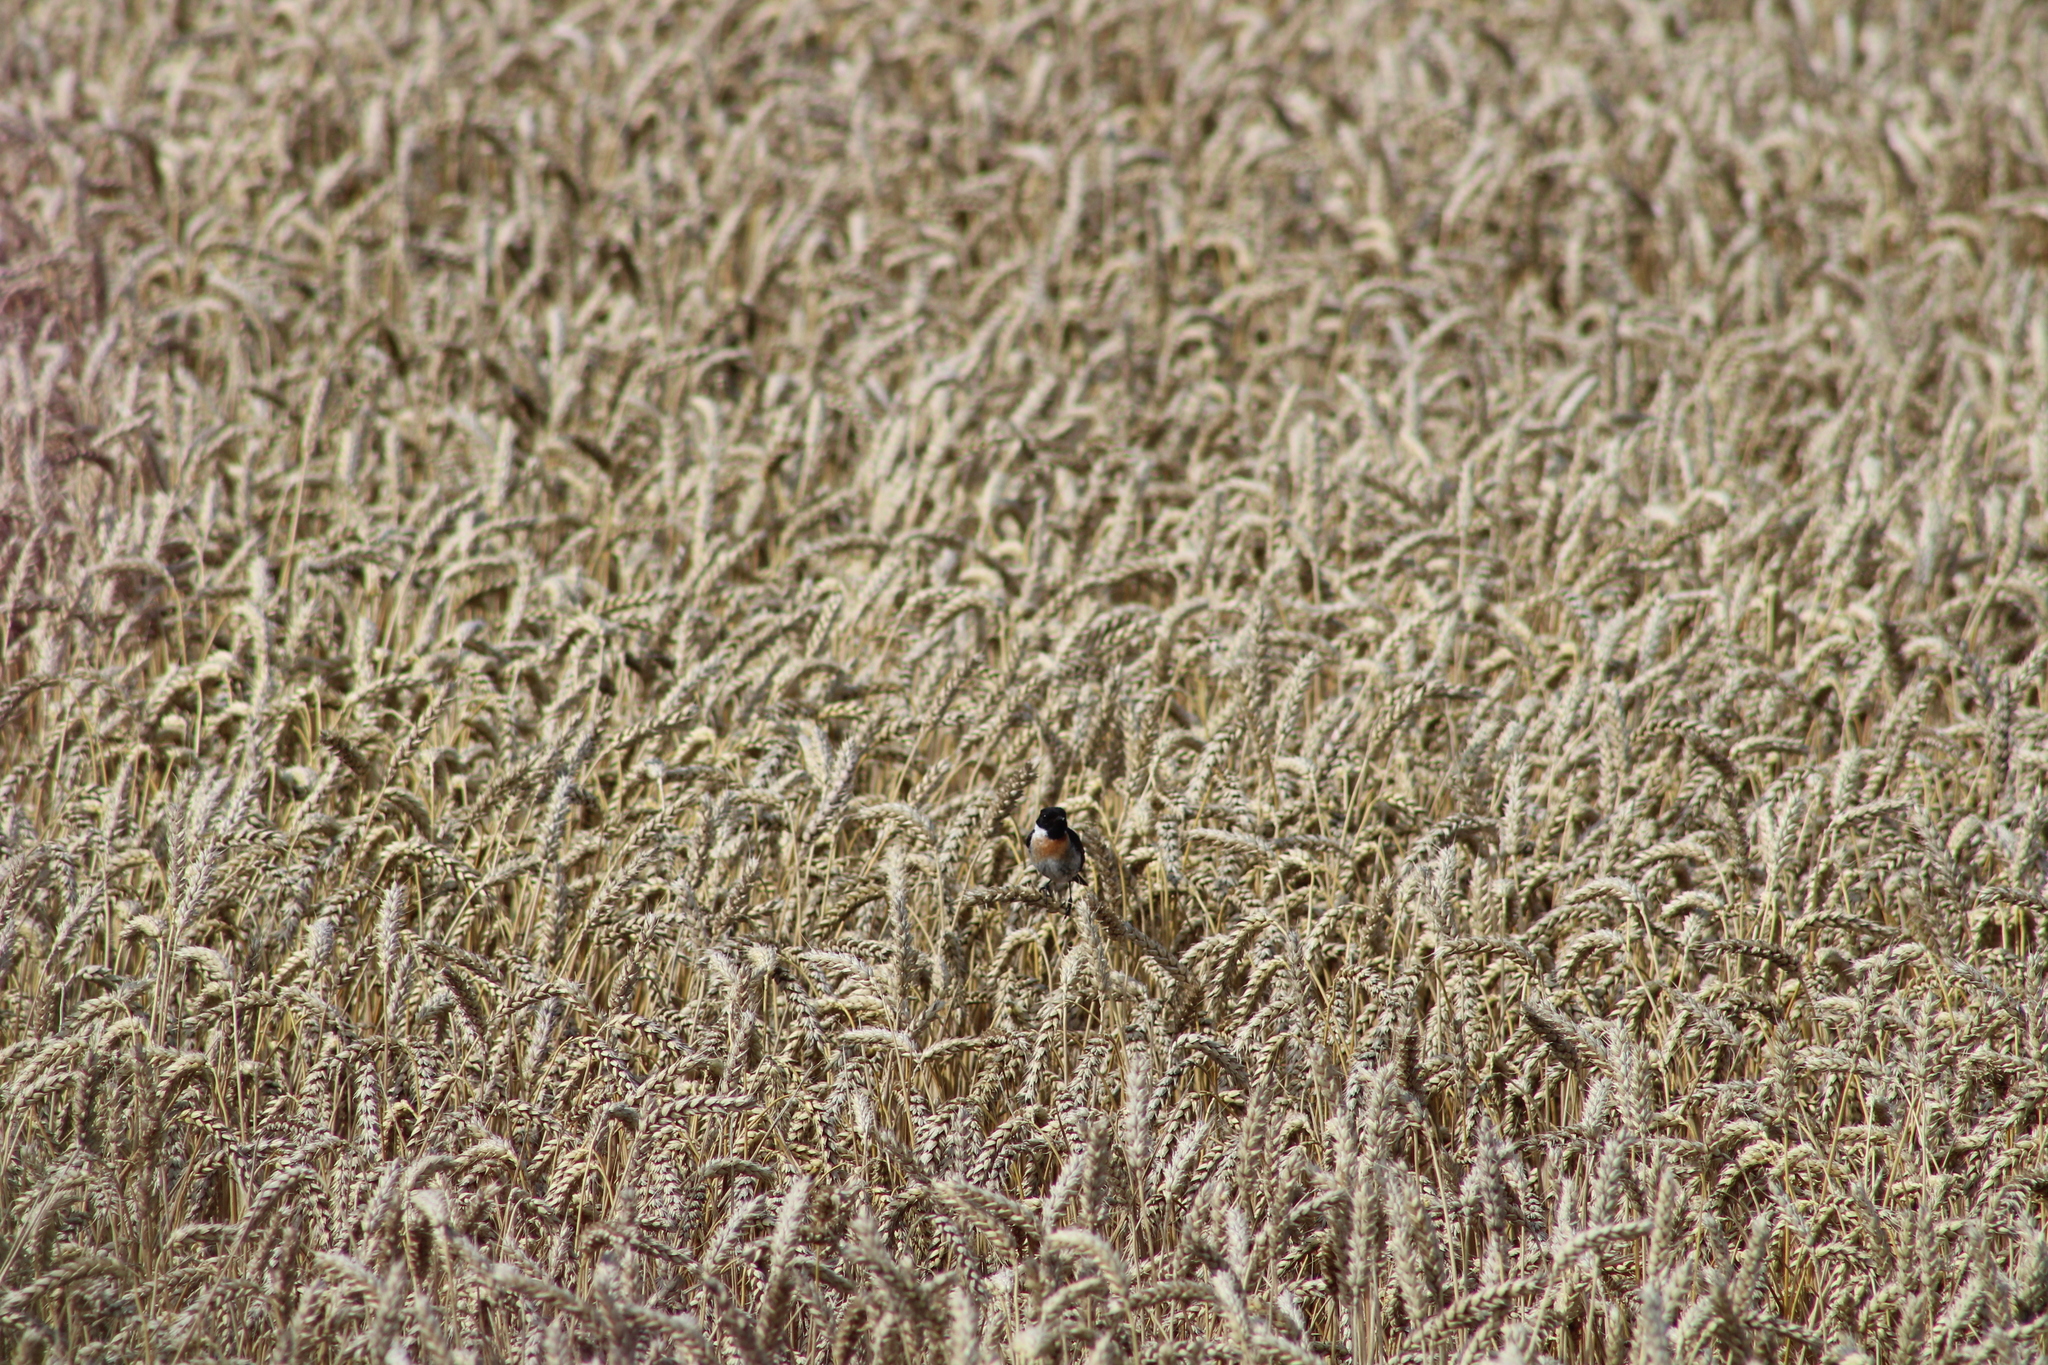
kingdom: Animalia
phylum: Chordata
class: Aves
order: Passeriformes
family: Muscicapidae
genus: Saxicola
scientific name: Saxicola rubicola
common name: European stonechat
